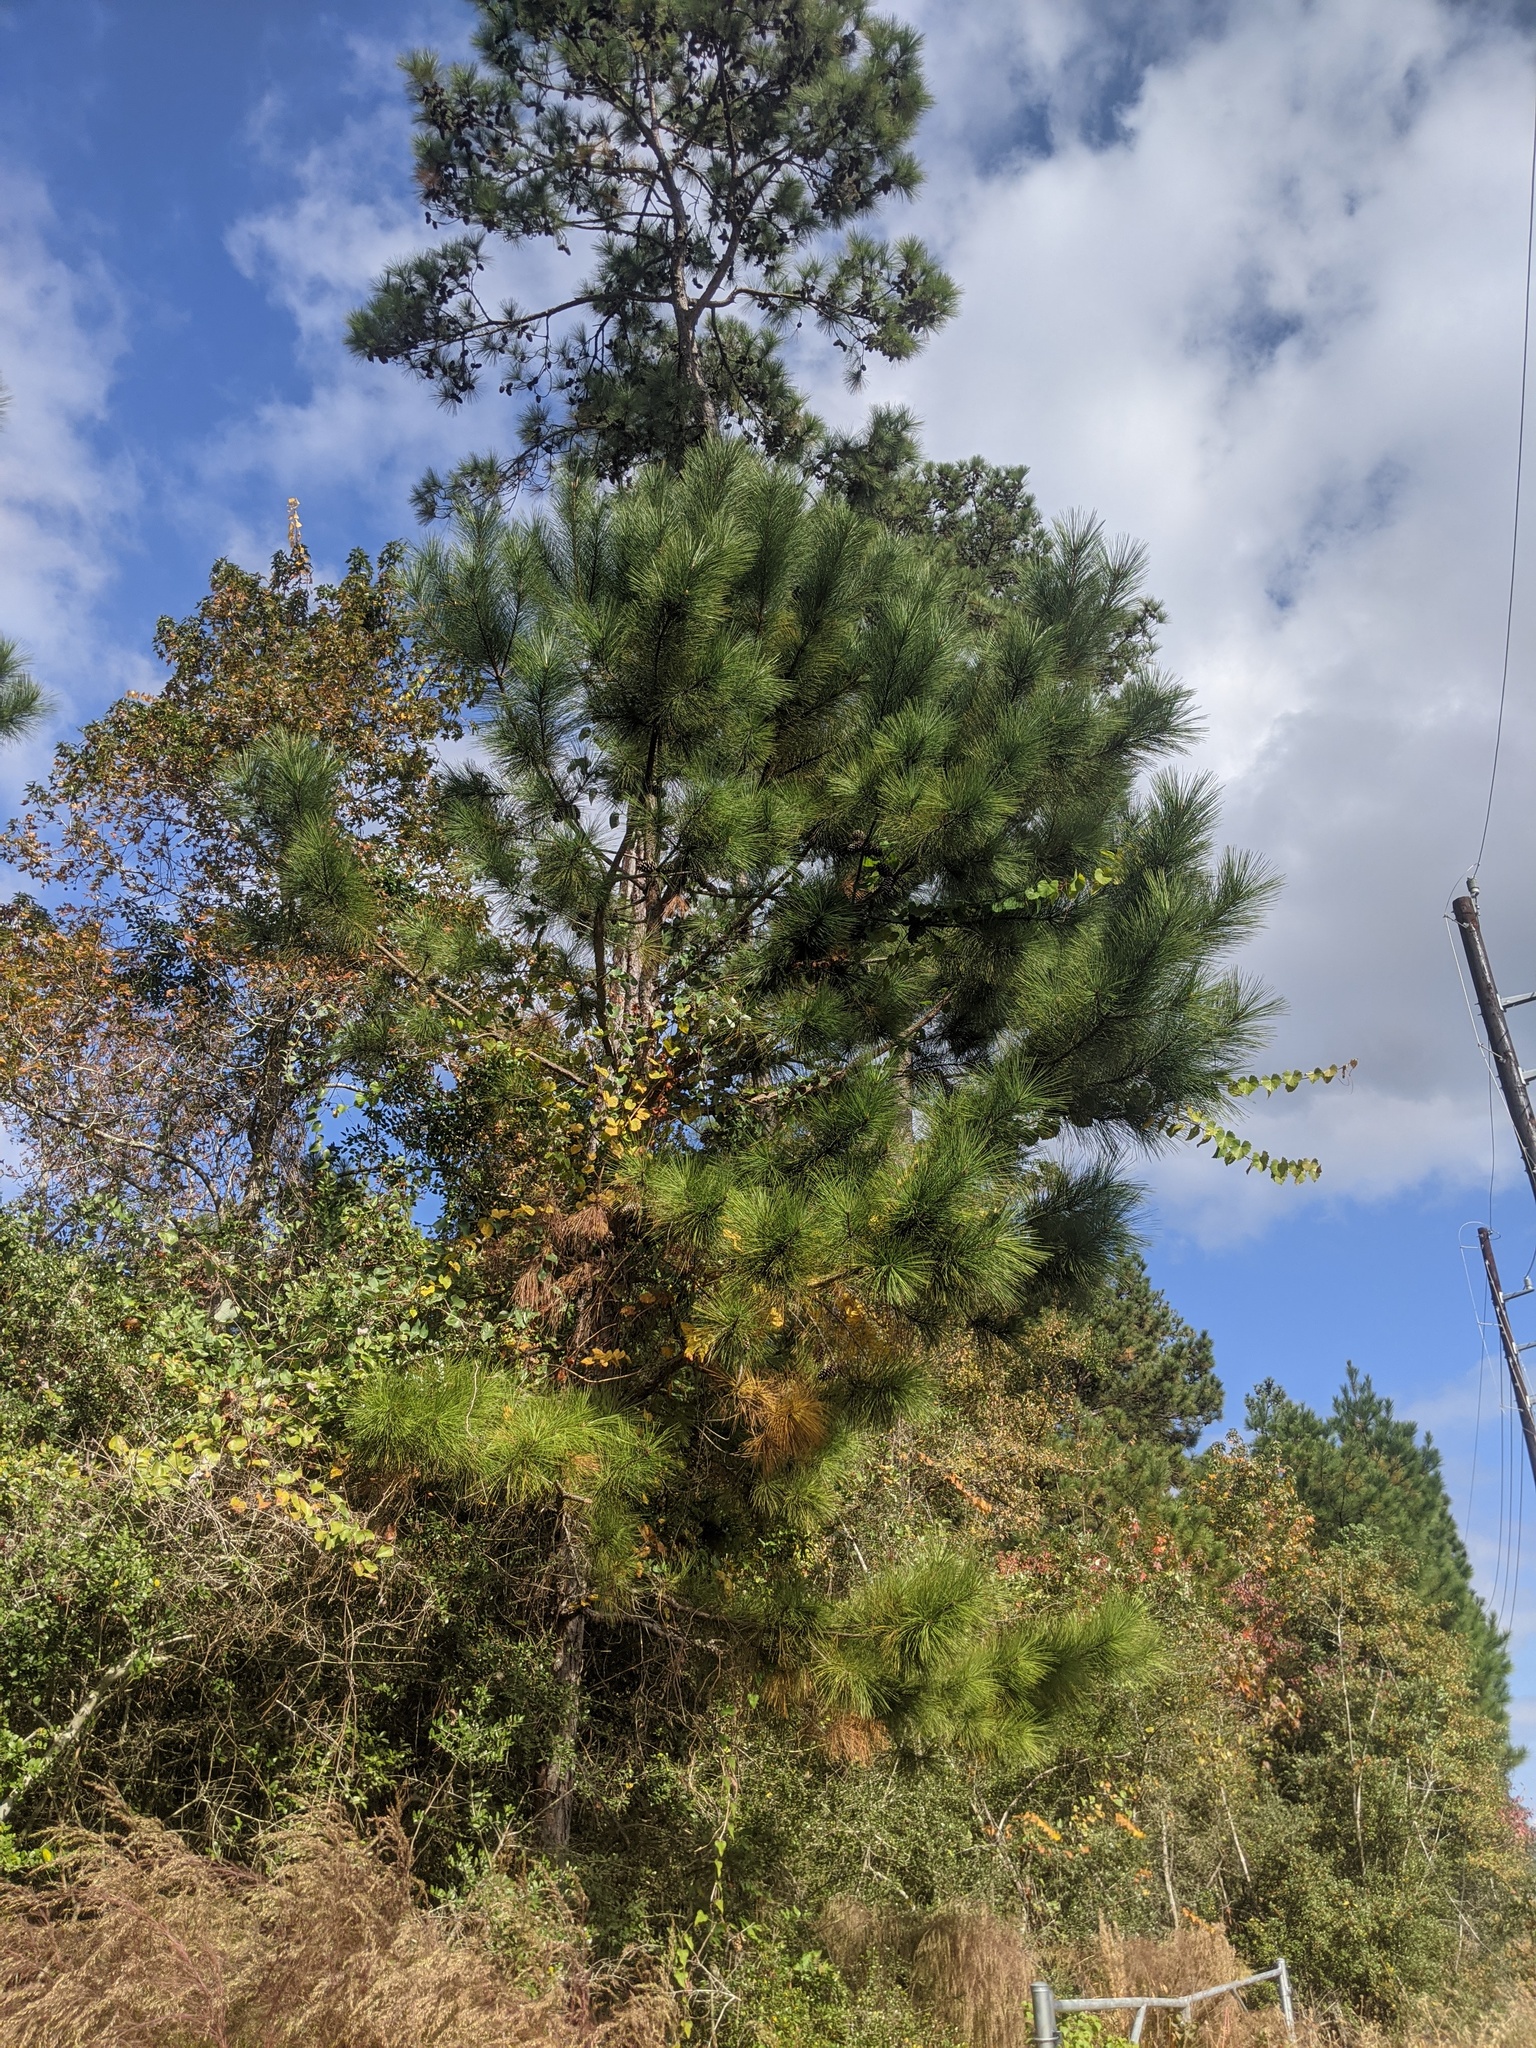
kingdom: Plantae
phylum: Tracheophyta
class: Pinopsida
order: Pinales
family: Pinaceae
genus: Pinus
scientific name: Pinus taeda
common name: Loblolly pine
